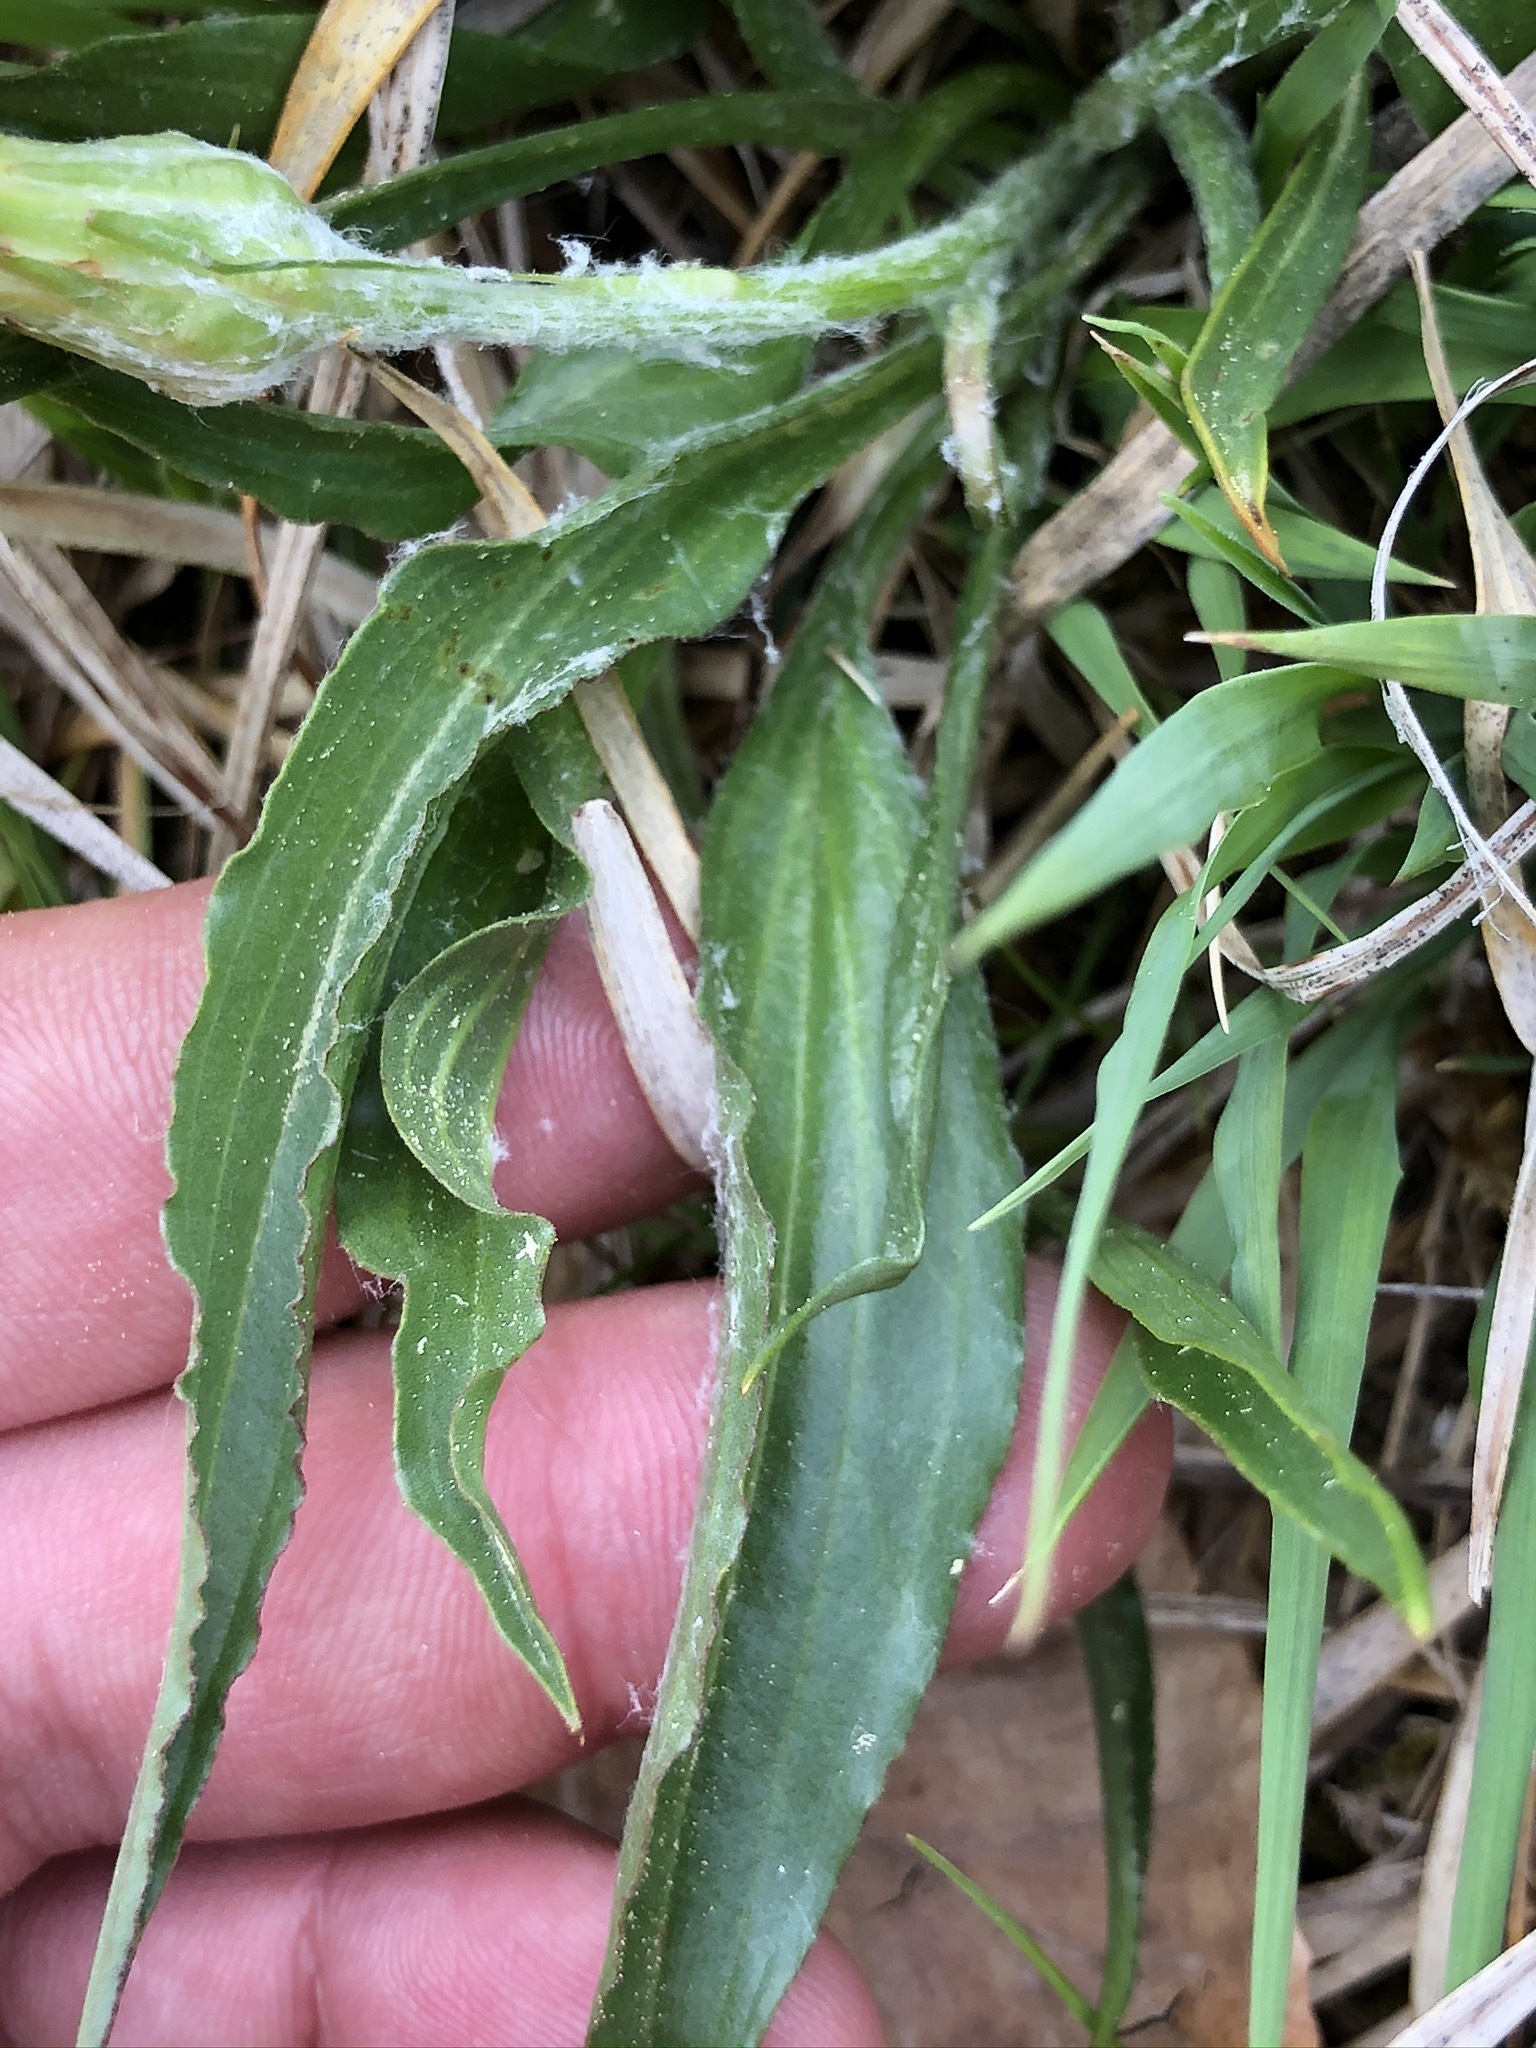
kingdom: Plantae
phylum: Tracheophyta
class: Magnoliopsida
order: Asterales
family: Asteraceae
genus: Scorzonera
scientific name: Scorzonera humilis
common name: Viper's-grass
